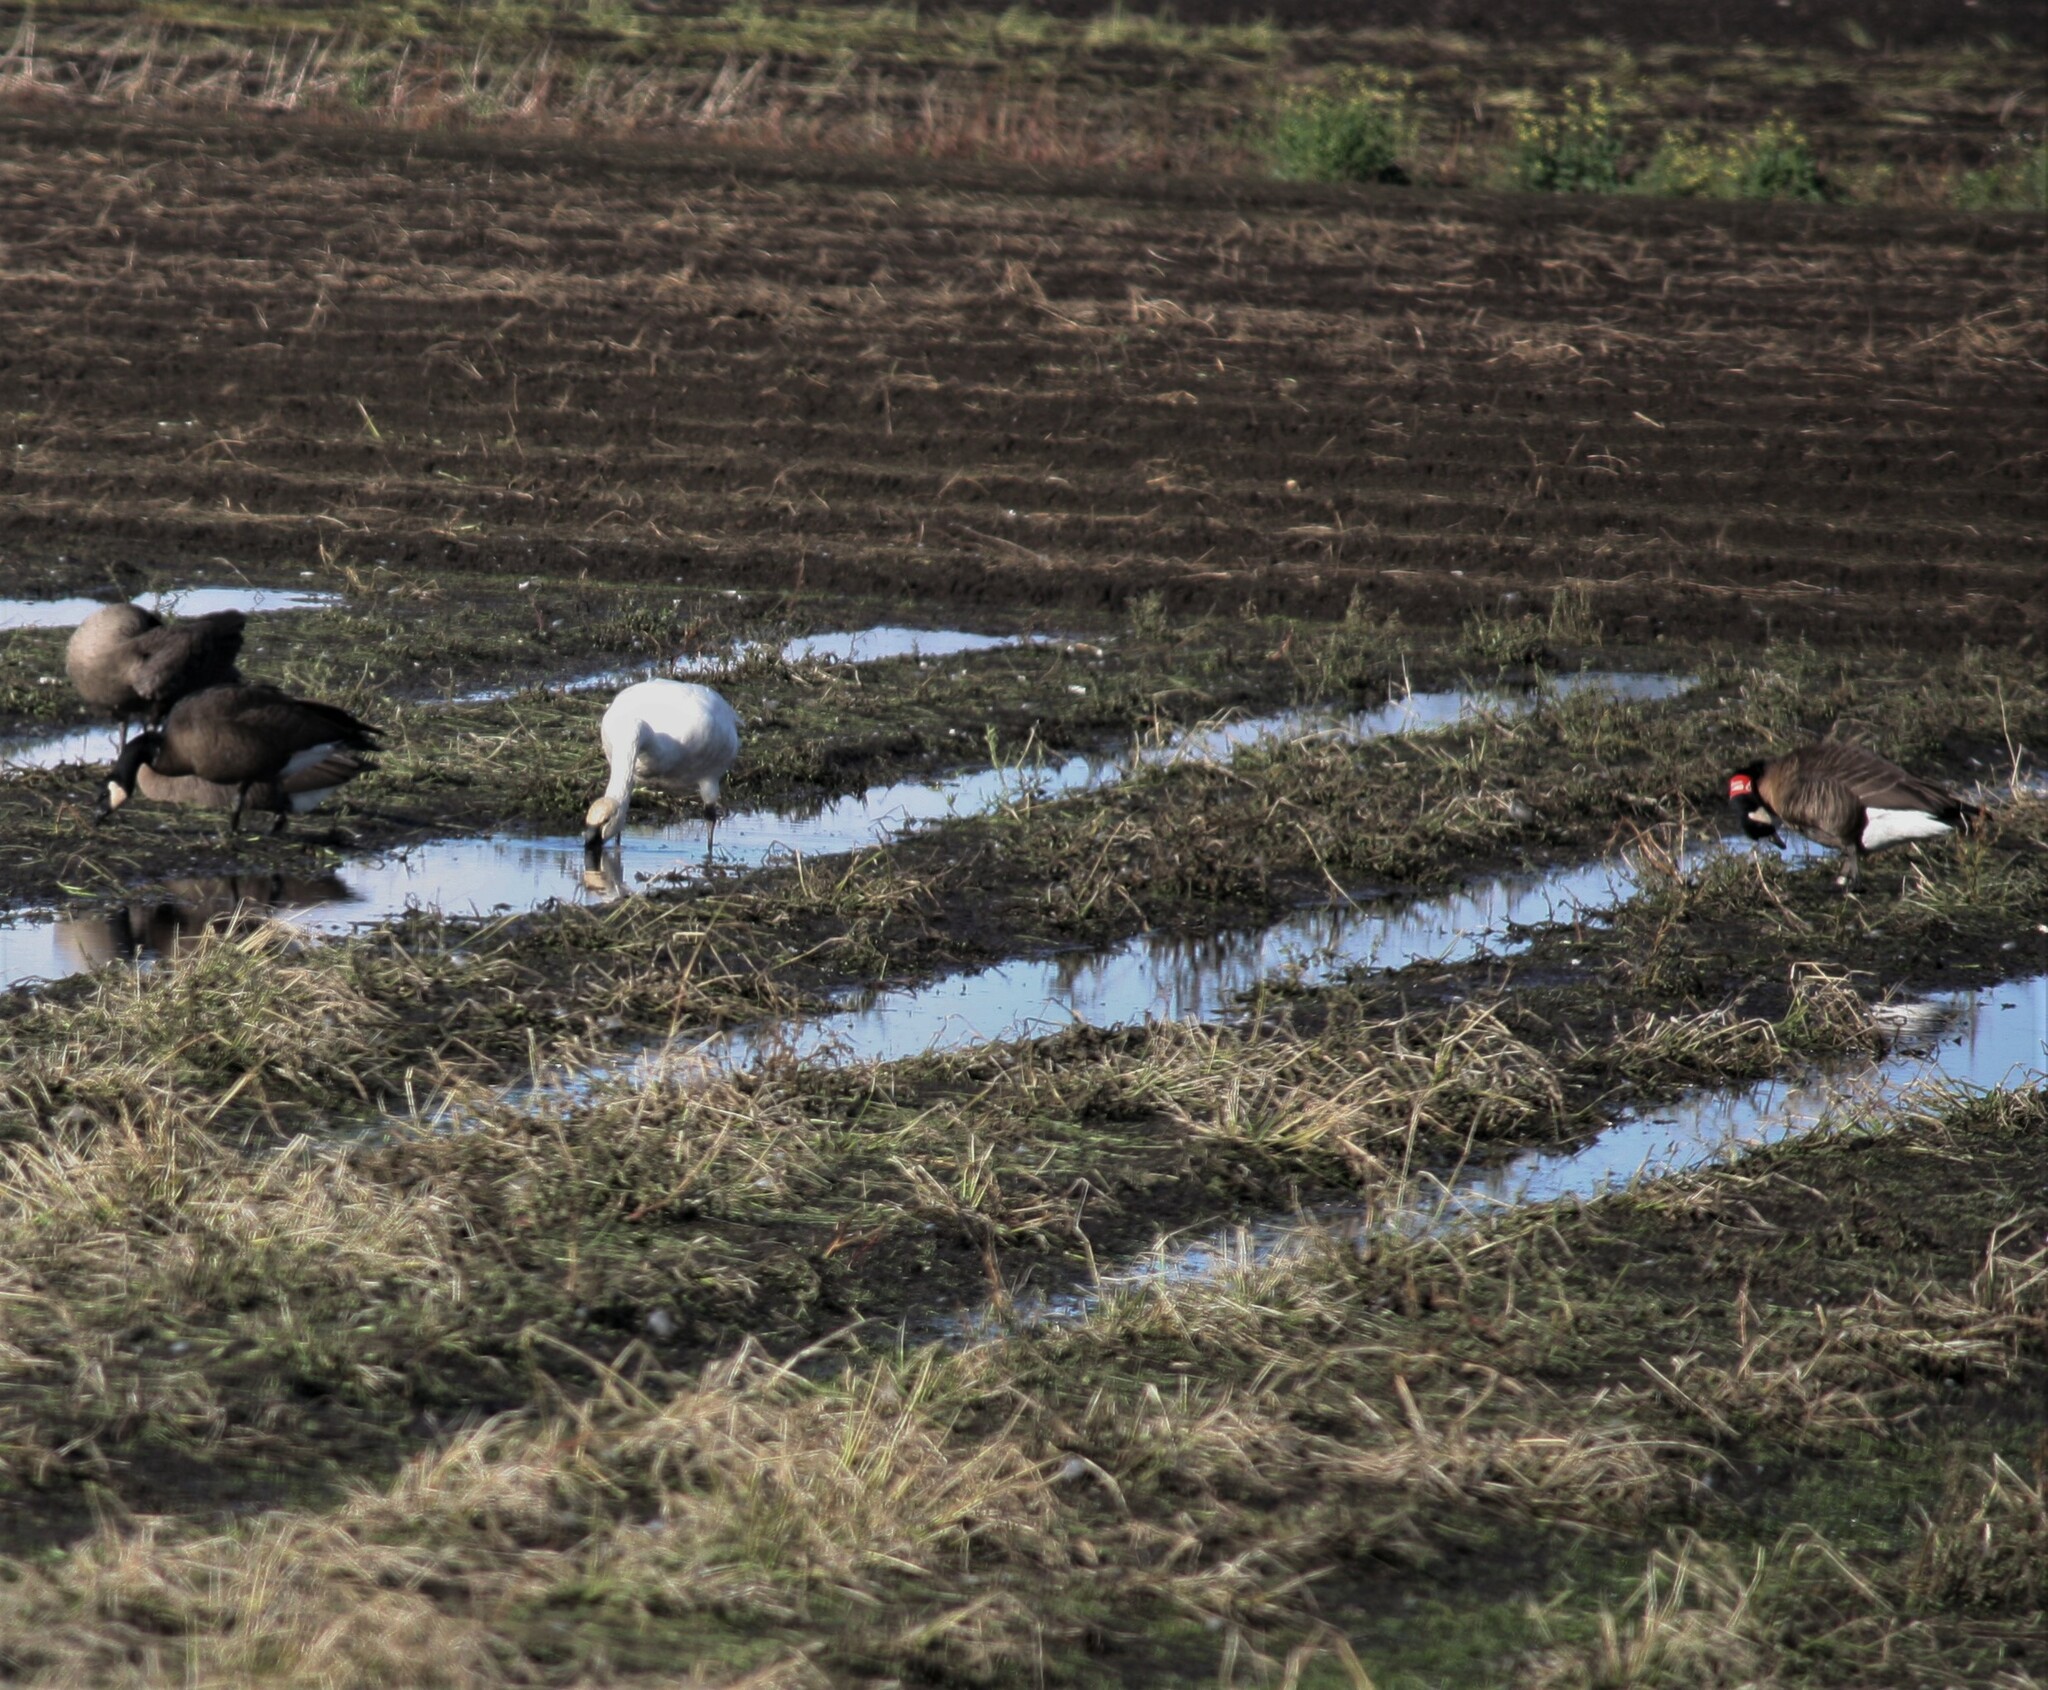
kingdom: Animalia
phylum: Chordata
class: Aves
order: Anseriformes
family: Anatidae
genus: Cygnus
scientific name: Cygnus columbianus
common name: Tundra swan
